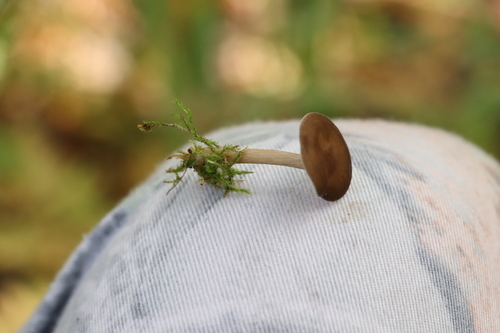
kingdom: Fungi
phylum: Basidiomycota
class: Agaricomycetes
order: Agaricales
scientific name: Agaricales
